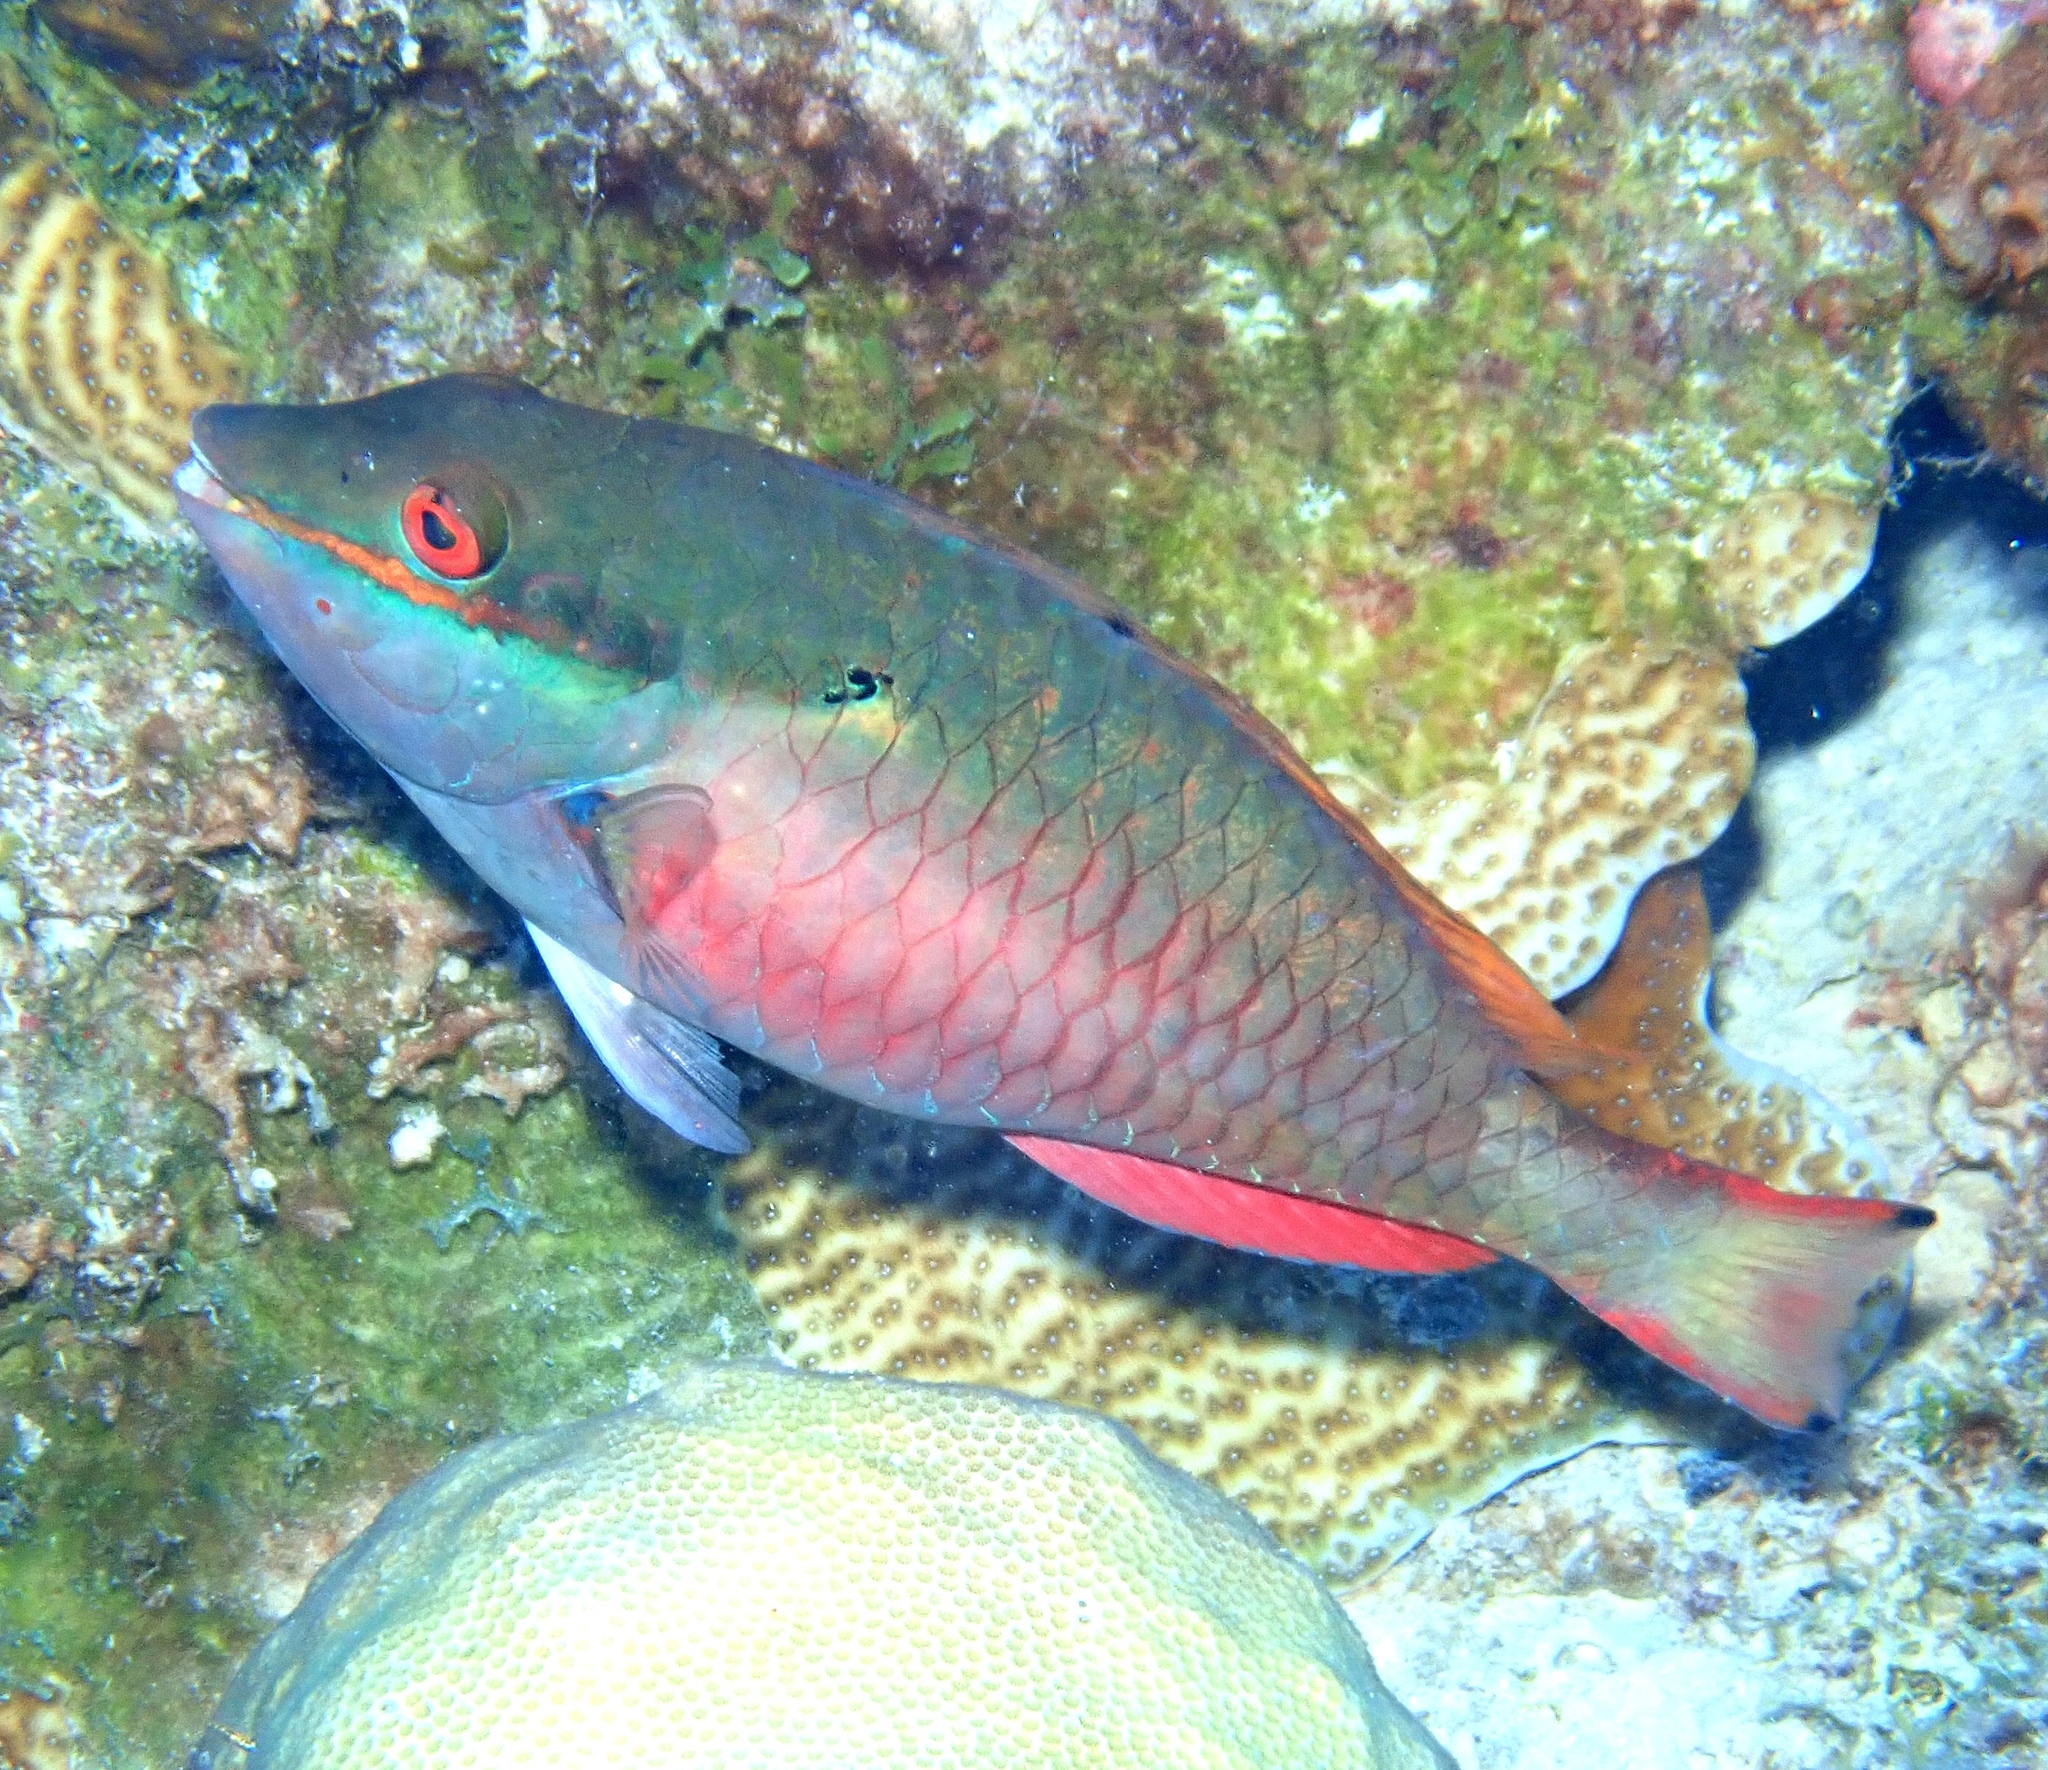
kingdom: Animalia
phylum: Chordata
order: Perciformes
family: Scaridae
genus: Sparisoma
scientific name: Sparisoma aurofrenatum
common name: Redband parrotfish
